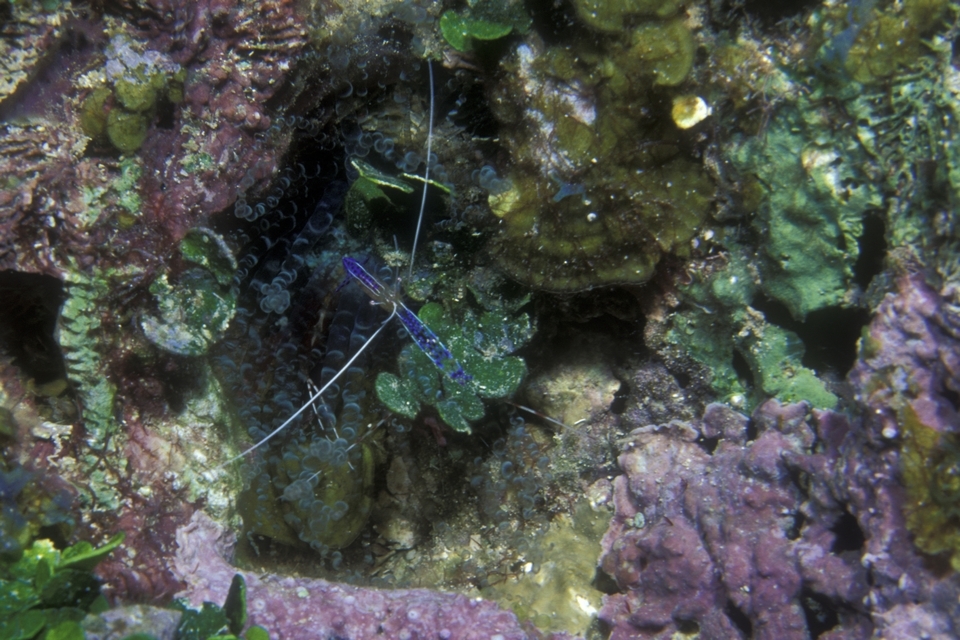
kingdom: Animalia
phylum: Arthropoda
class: Malacostraca
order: Decapoda
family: Palaemonidae
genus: Ancylomenes
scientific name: Ancylomenes pedersoni
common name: Pederson's cleaning shrimp
